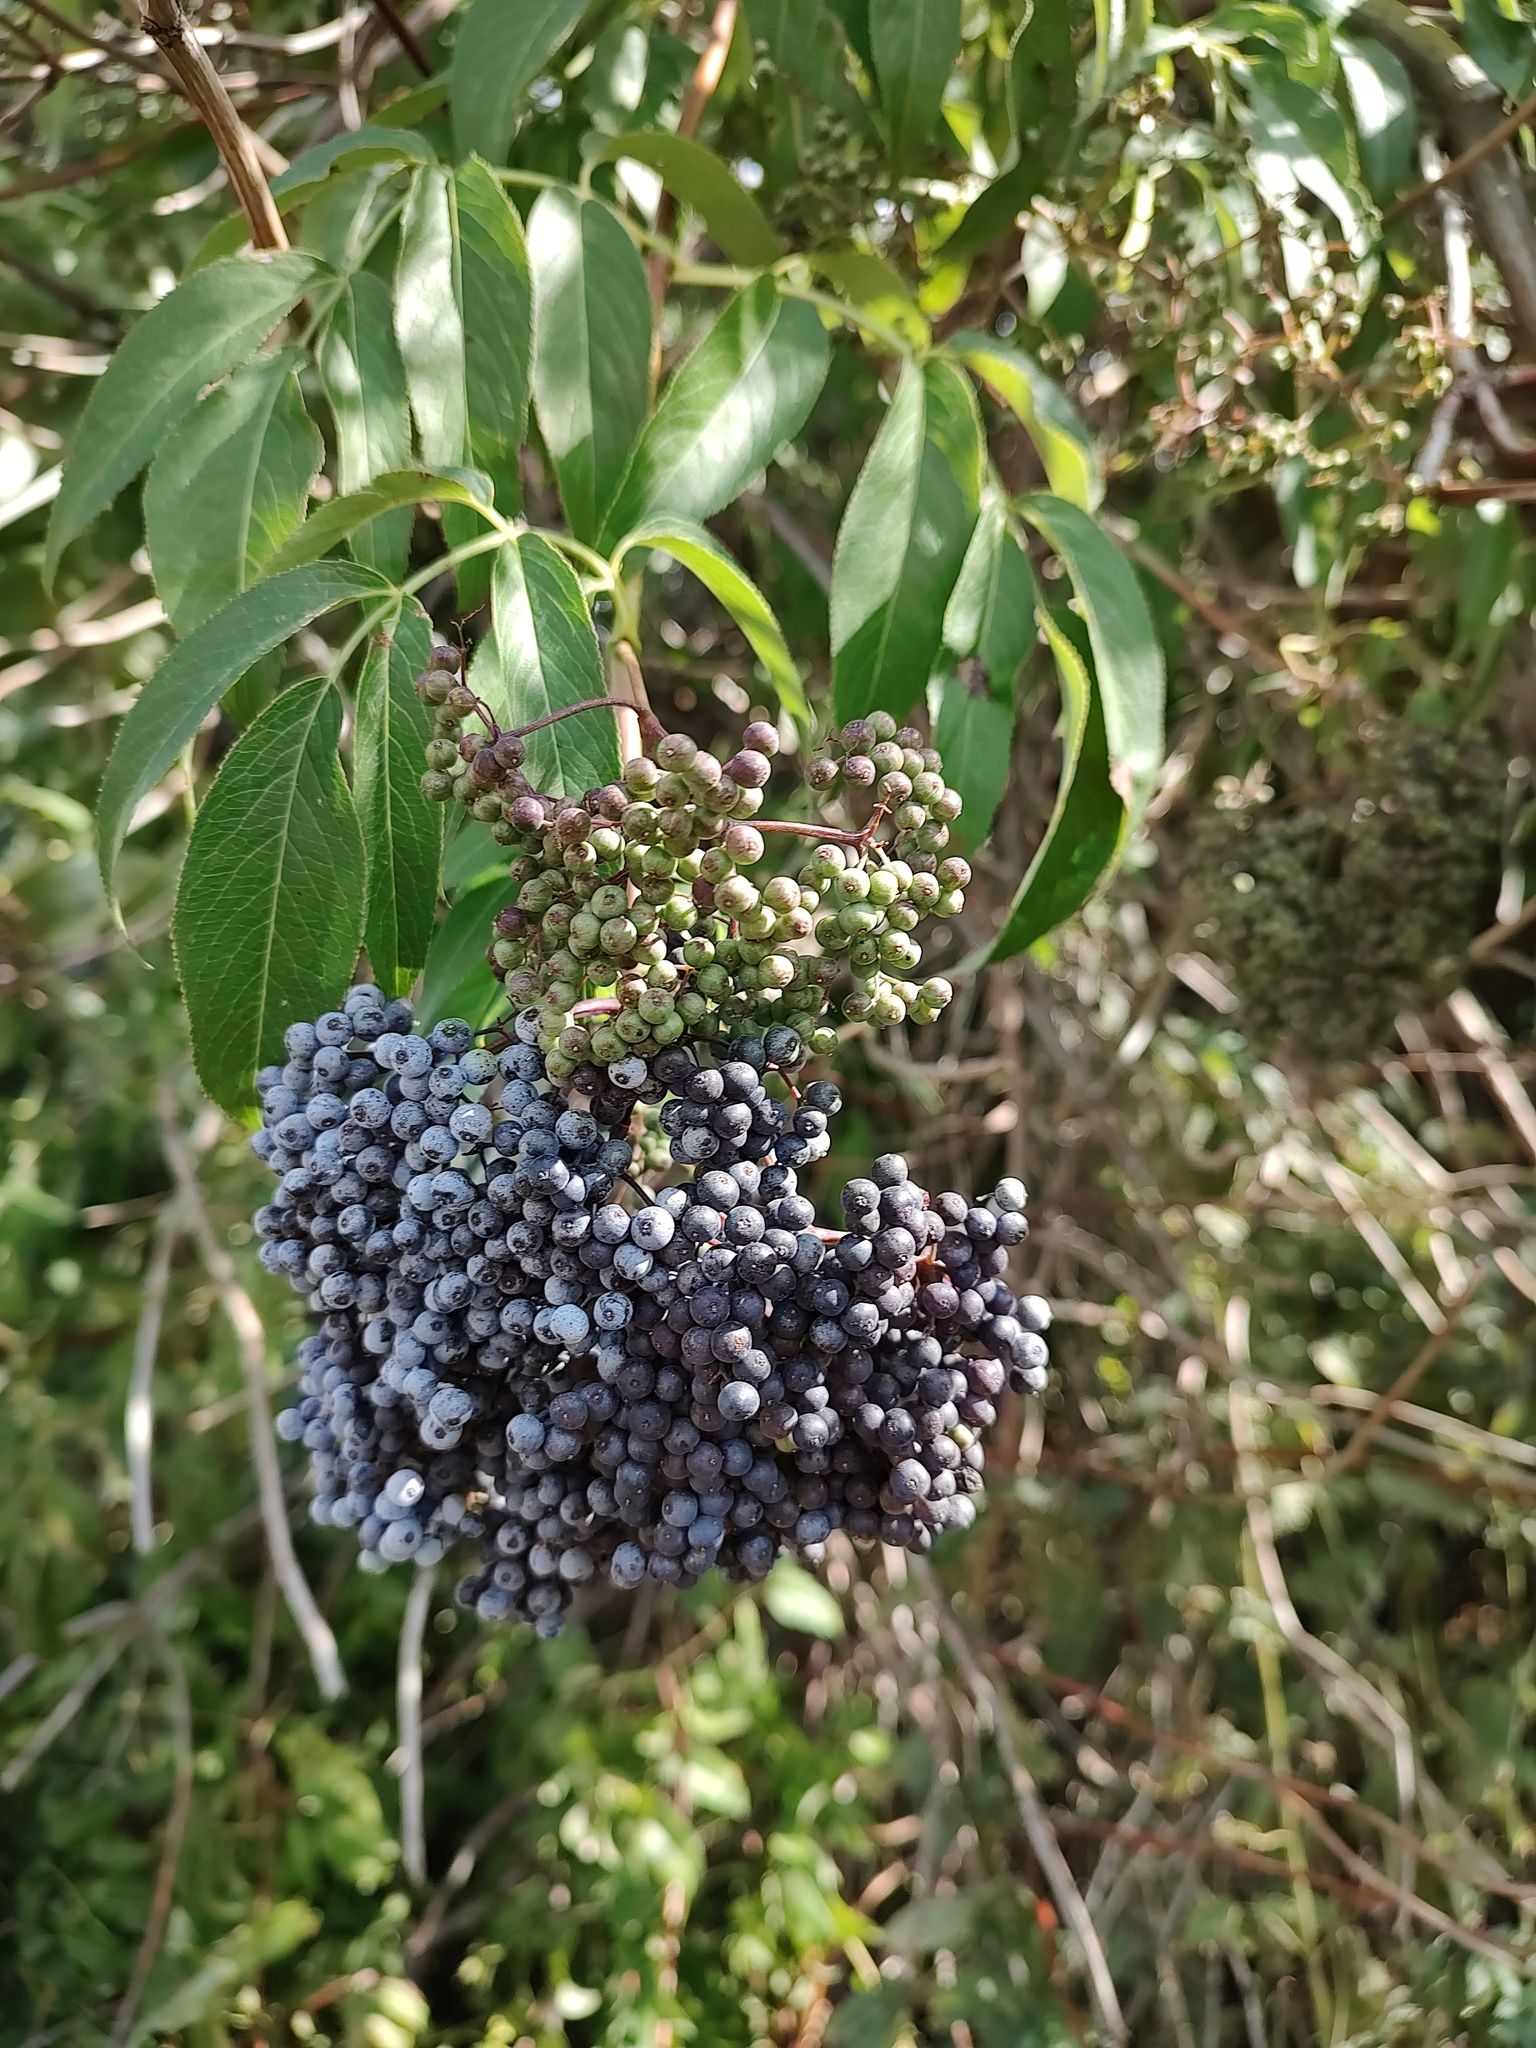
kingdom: Plantae
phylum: Tracheophyta
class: Magnoliopsida
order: Dipsacales
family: Viburnaceae
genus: Sambucus
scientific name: Sambucus cerulea
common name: Blue elder
